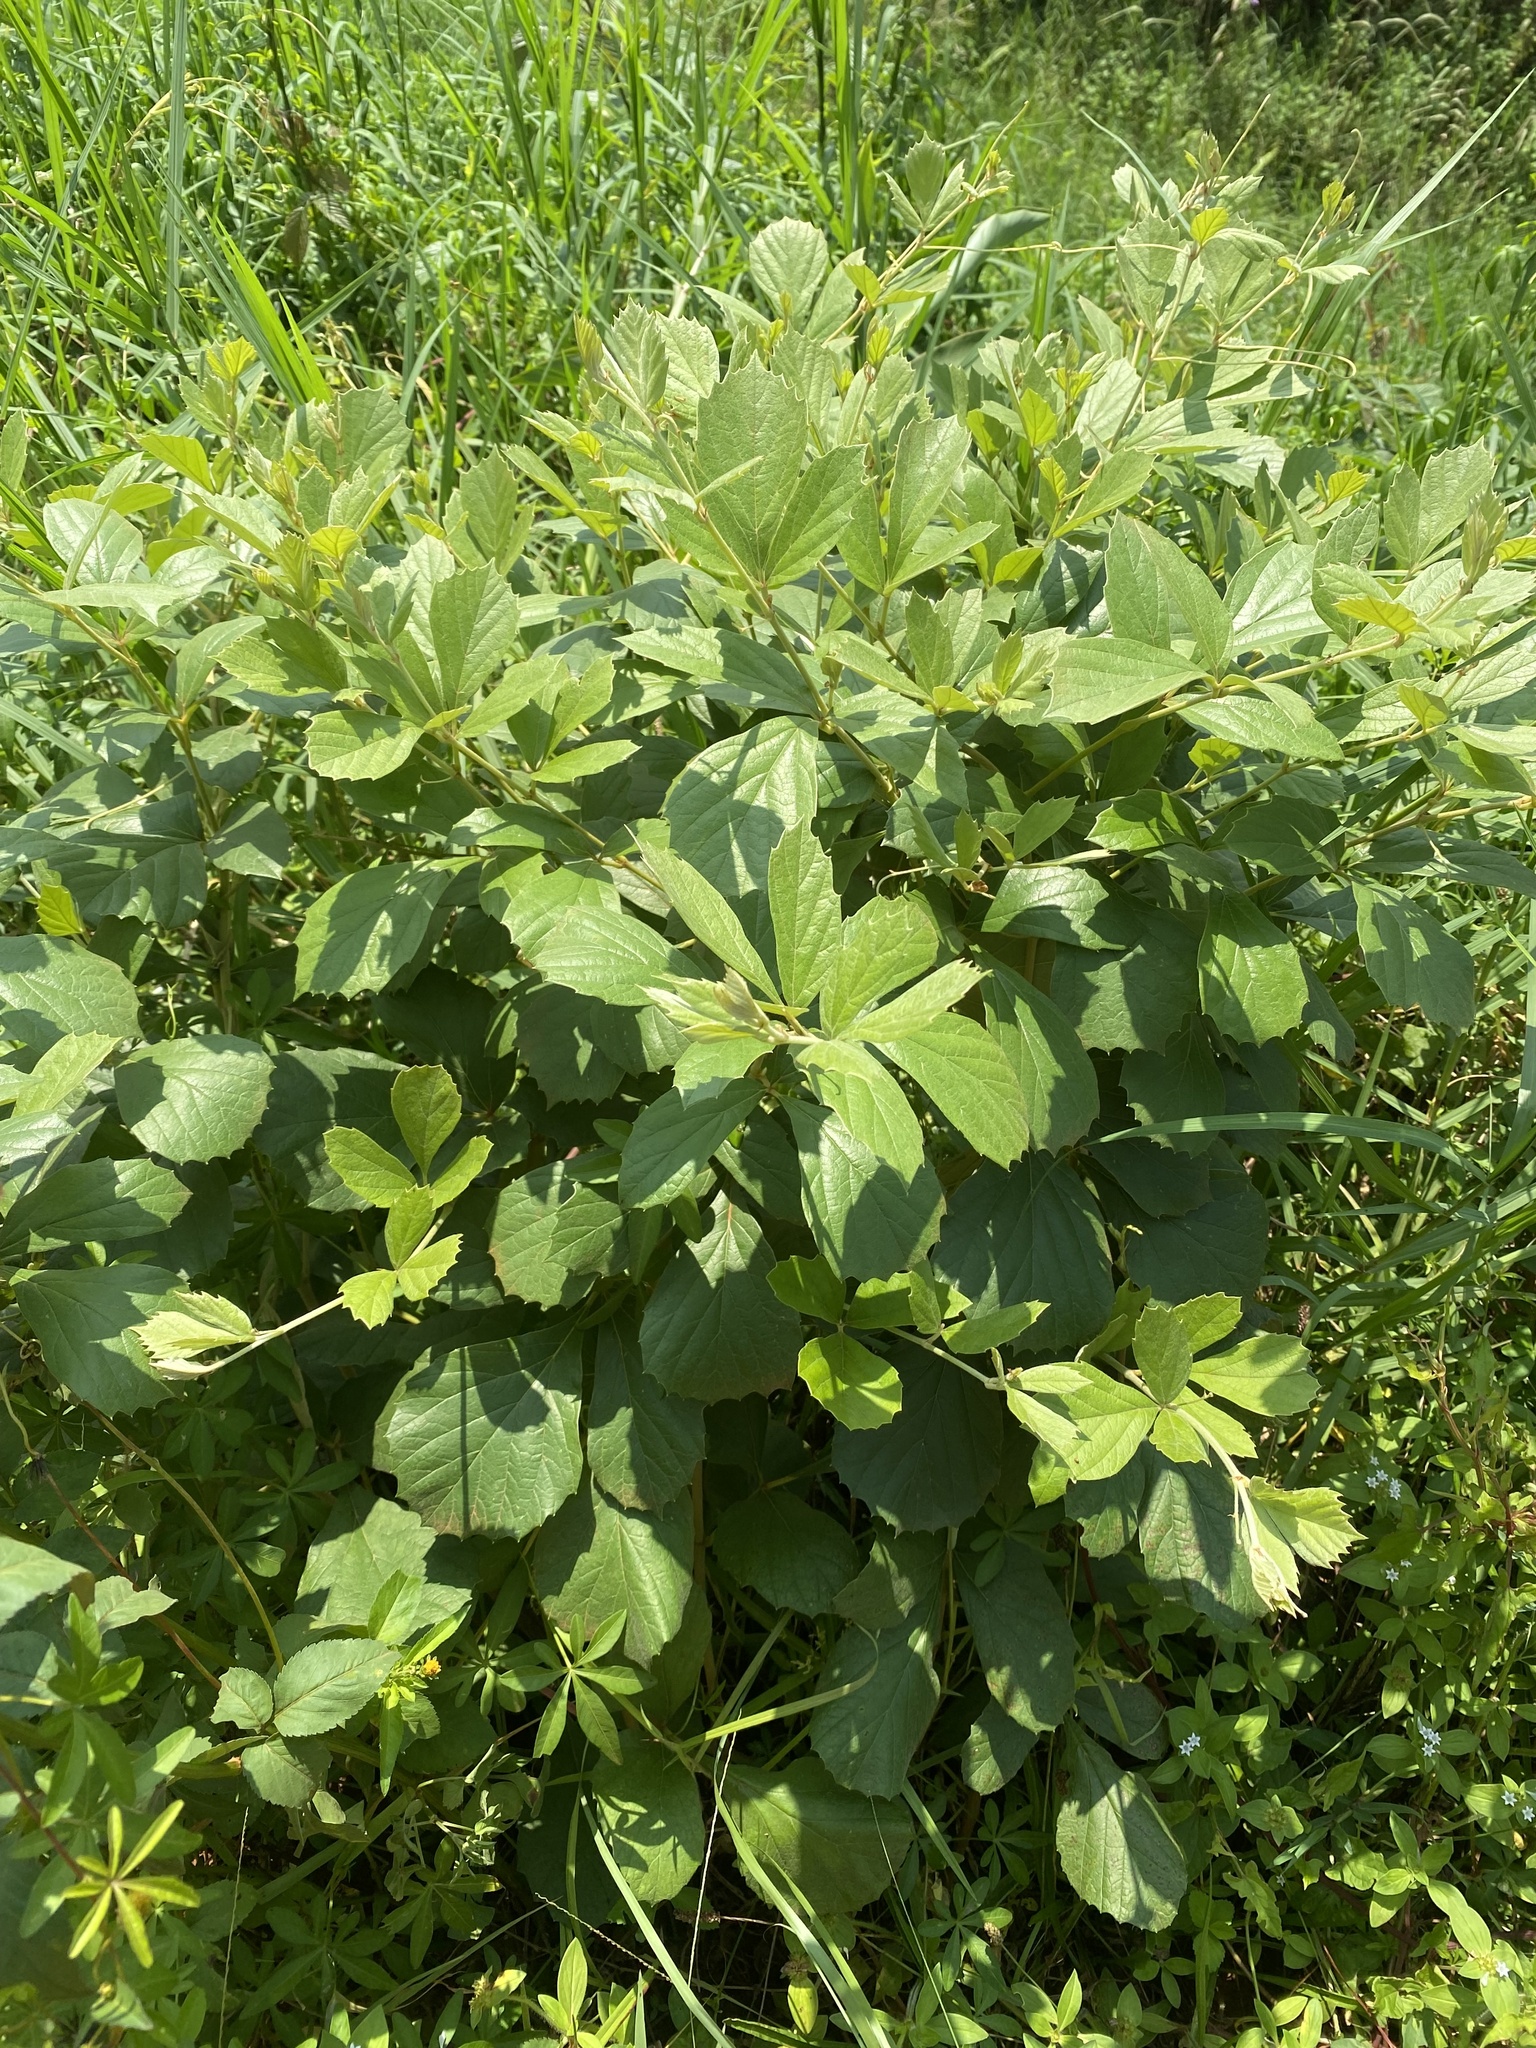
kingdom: Plantae
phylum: Tracheophyta
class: Magnoliopsida
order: Vitales
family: Vitaceae
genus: Rhoicissus
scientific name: Rhoicissus tridentata
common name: Common forest grape
